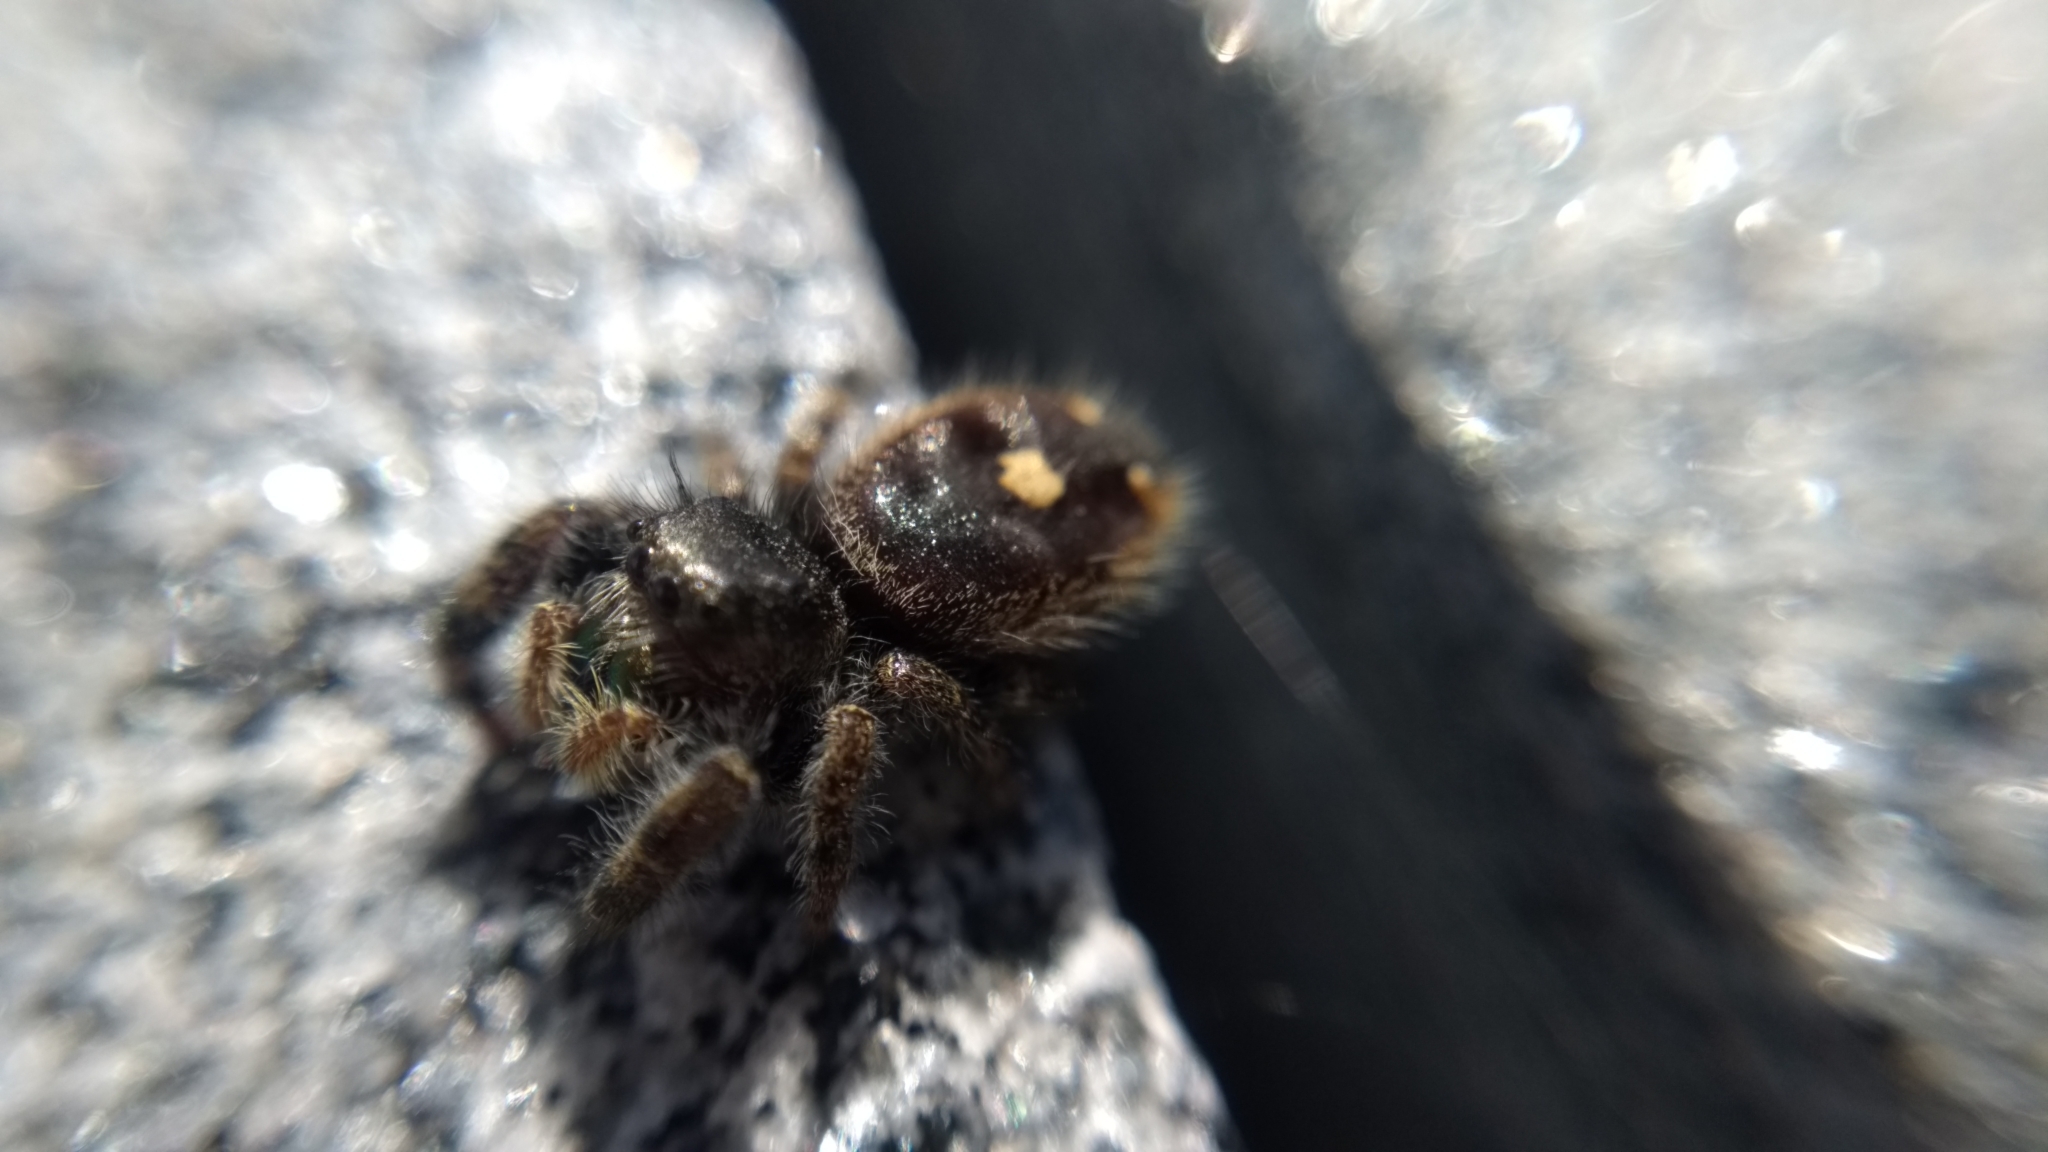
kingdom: Animalia
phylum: Arthropoda
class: Arachnida
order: Araneae
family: Salticidae
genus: Phidippus
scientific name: Phidippus audax
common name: Bold jumper
